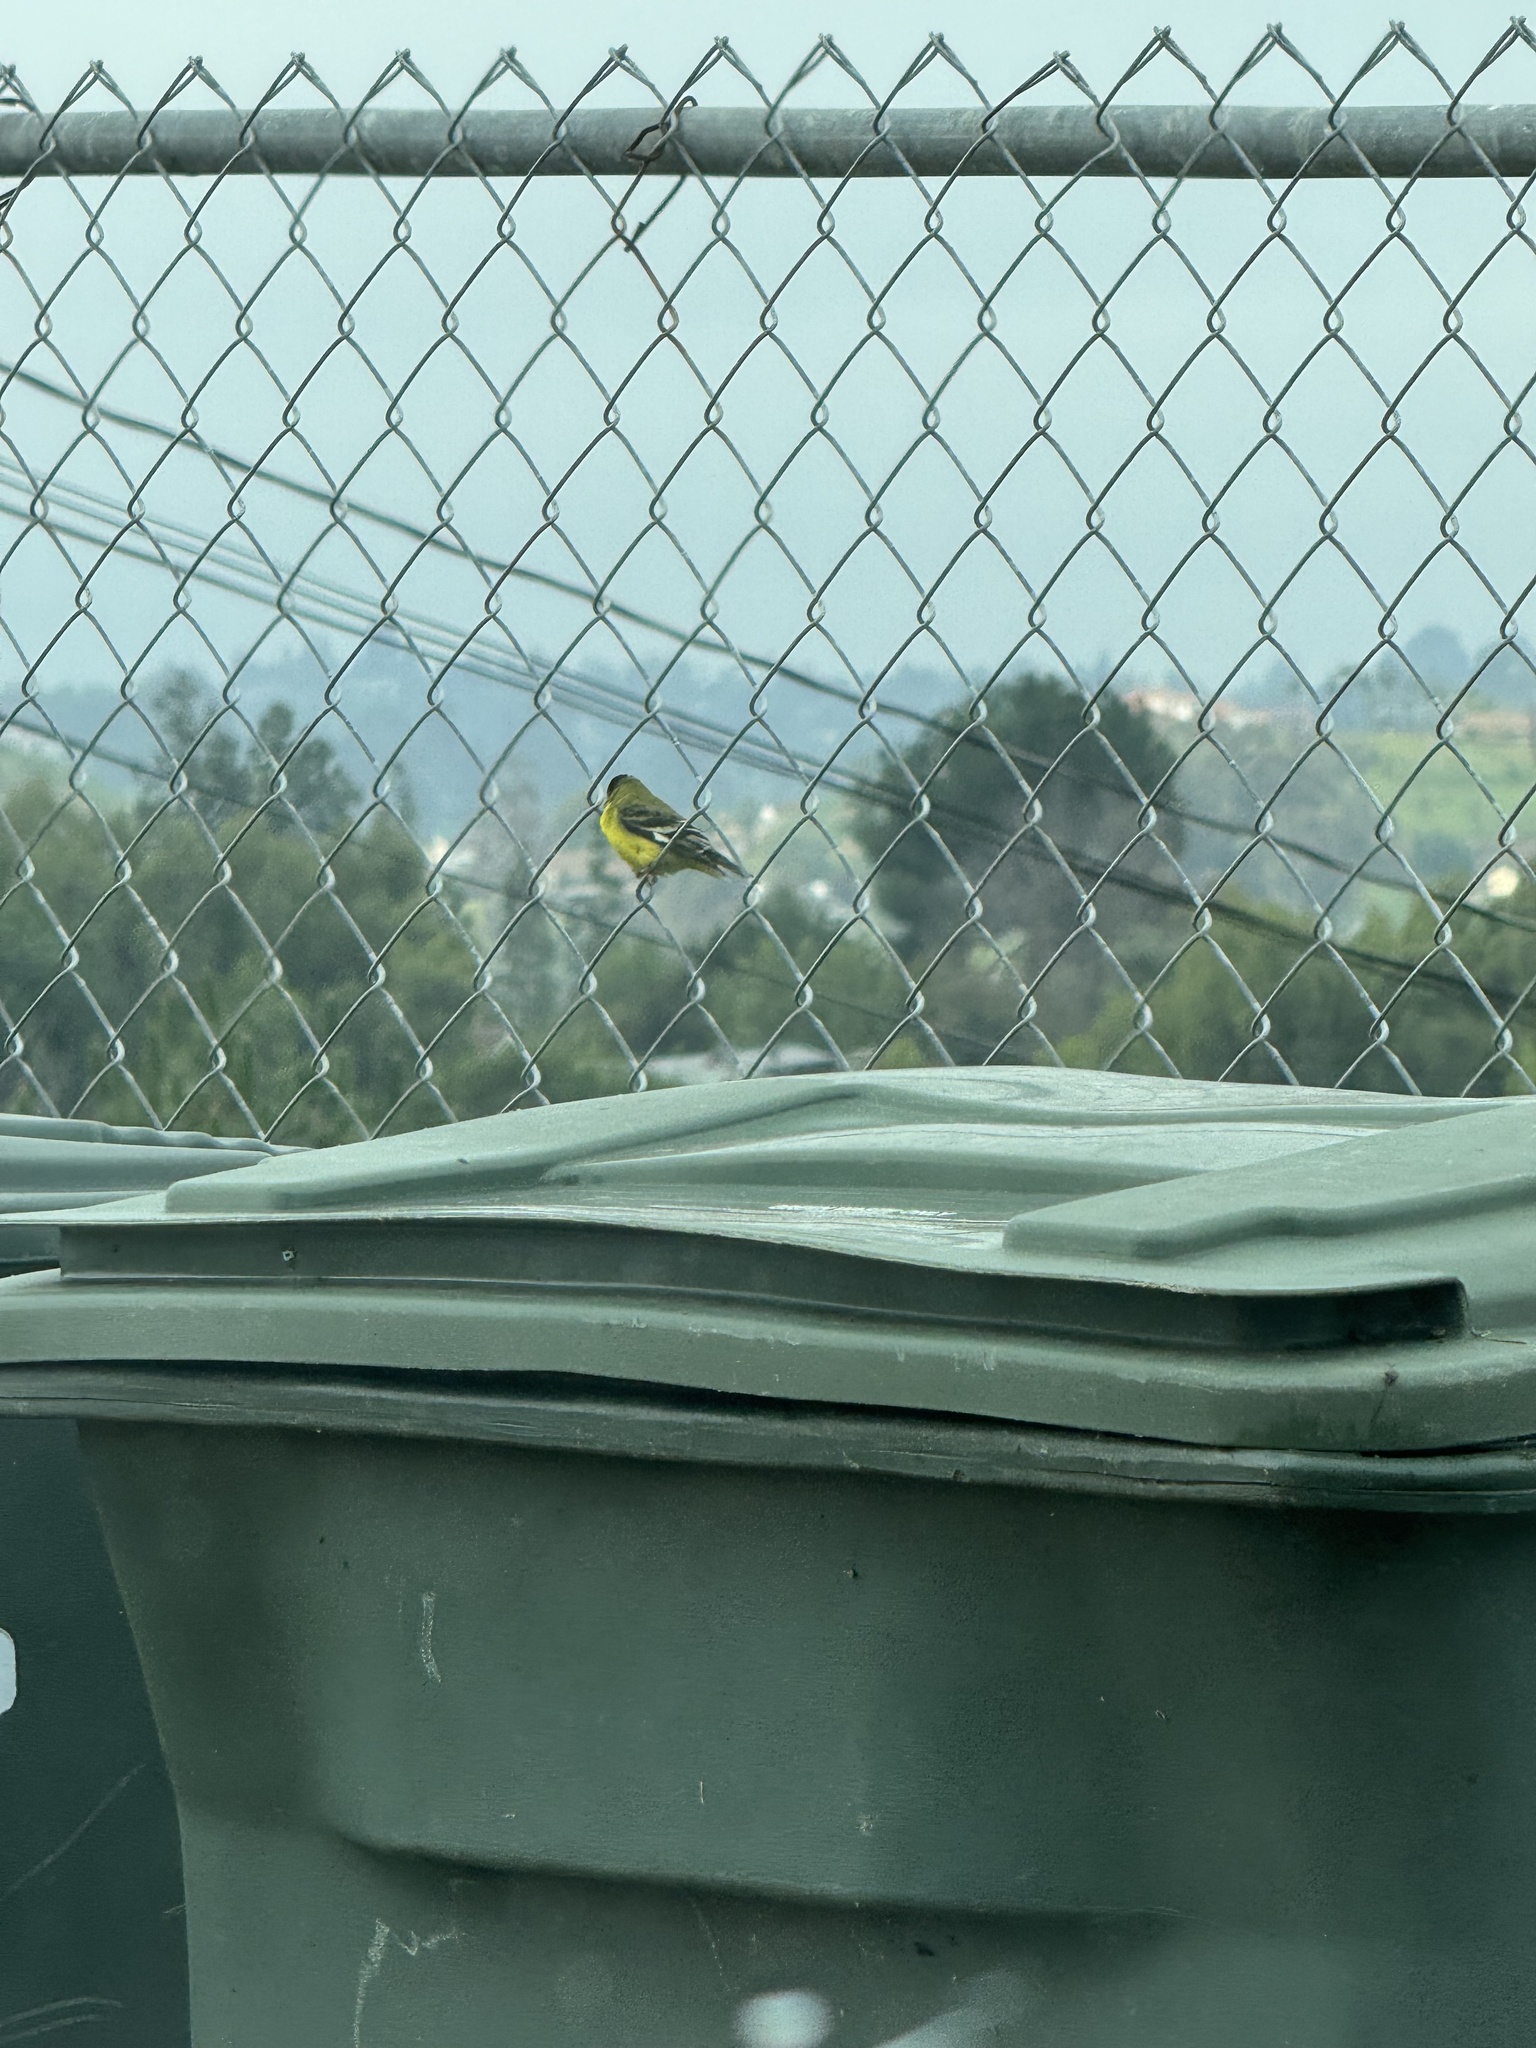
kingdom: Animalia
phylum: Chordata
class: Aves
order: Passeriformes
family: Fringillidae
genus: Spinus
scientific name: Spinus psaltria
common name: Lesser goldfinch
